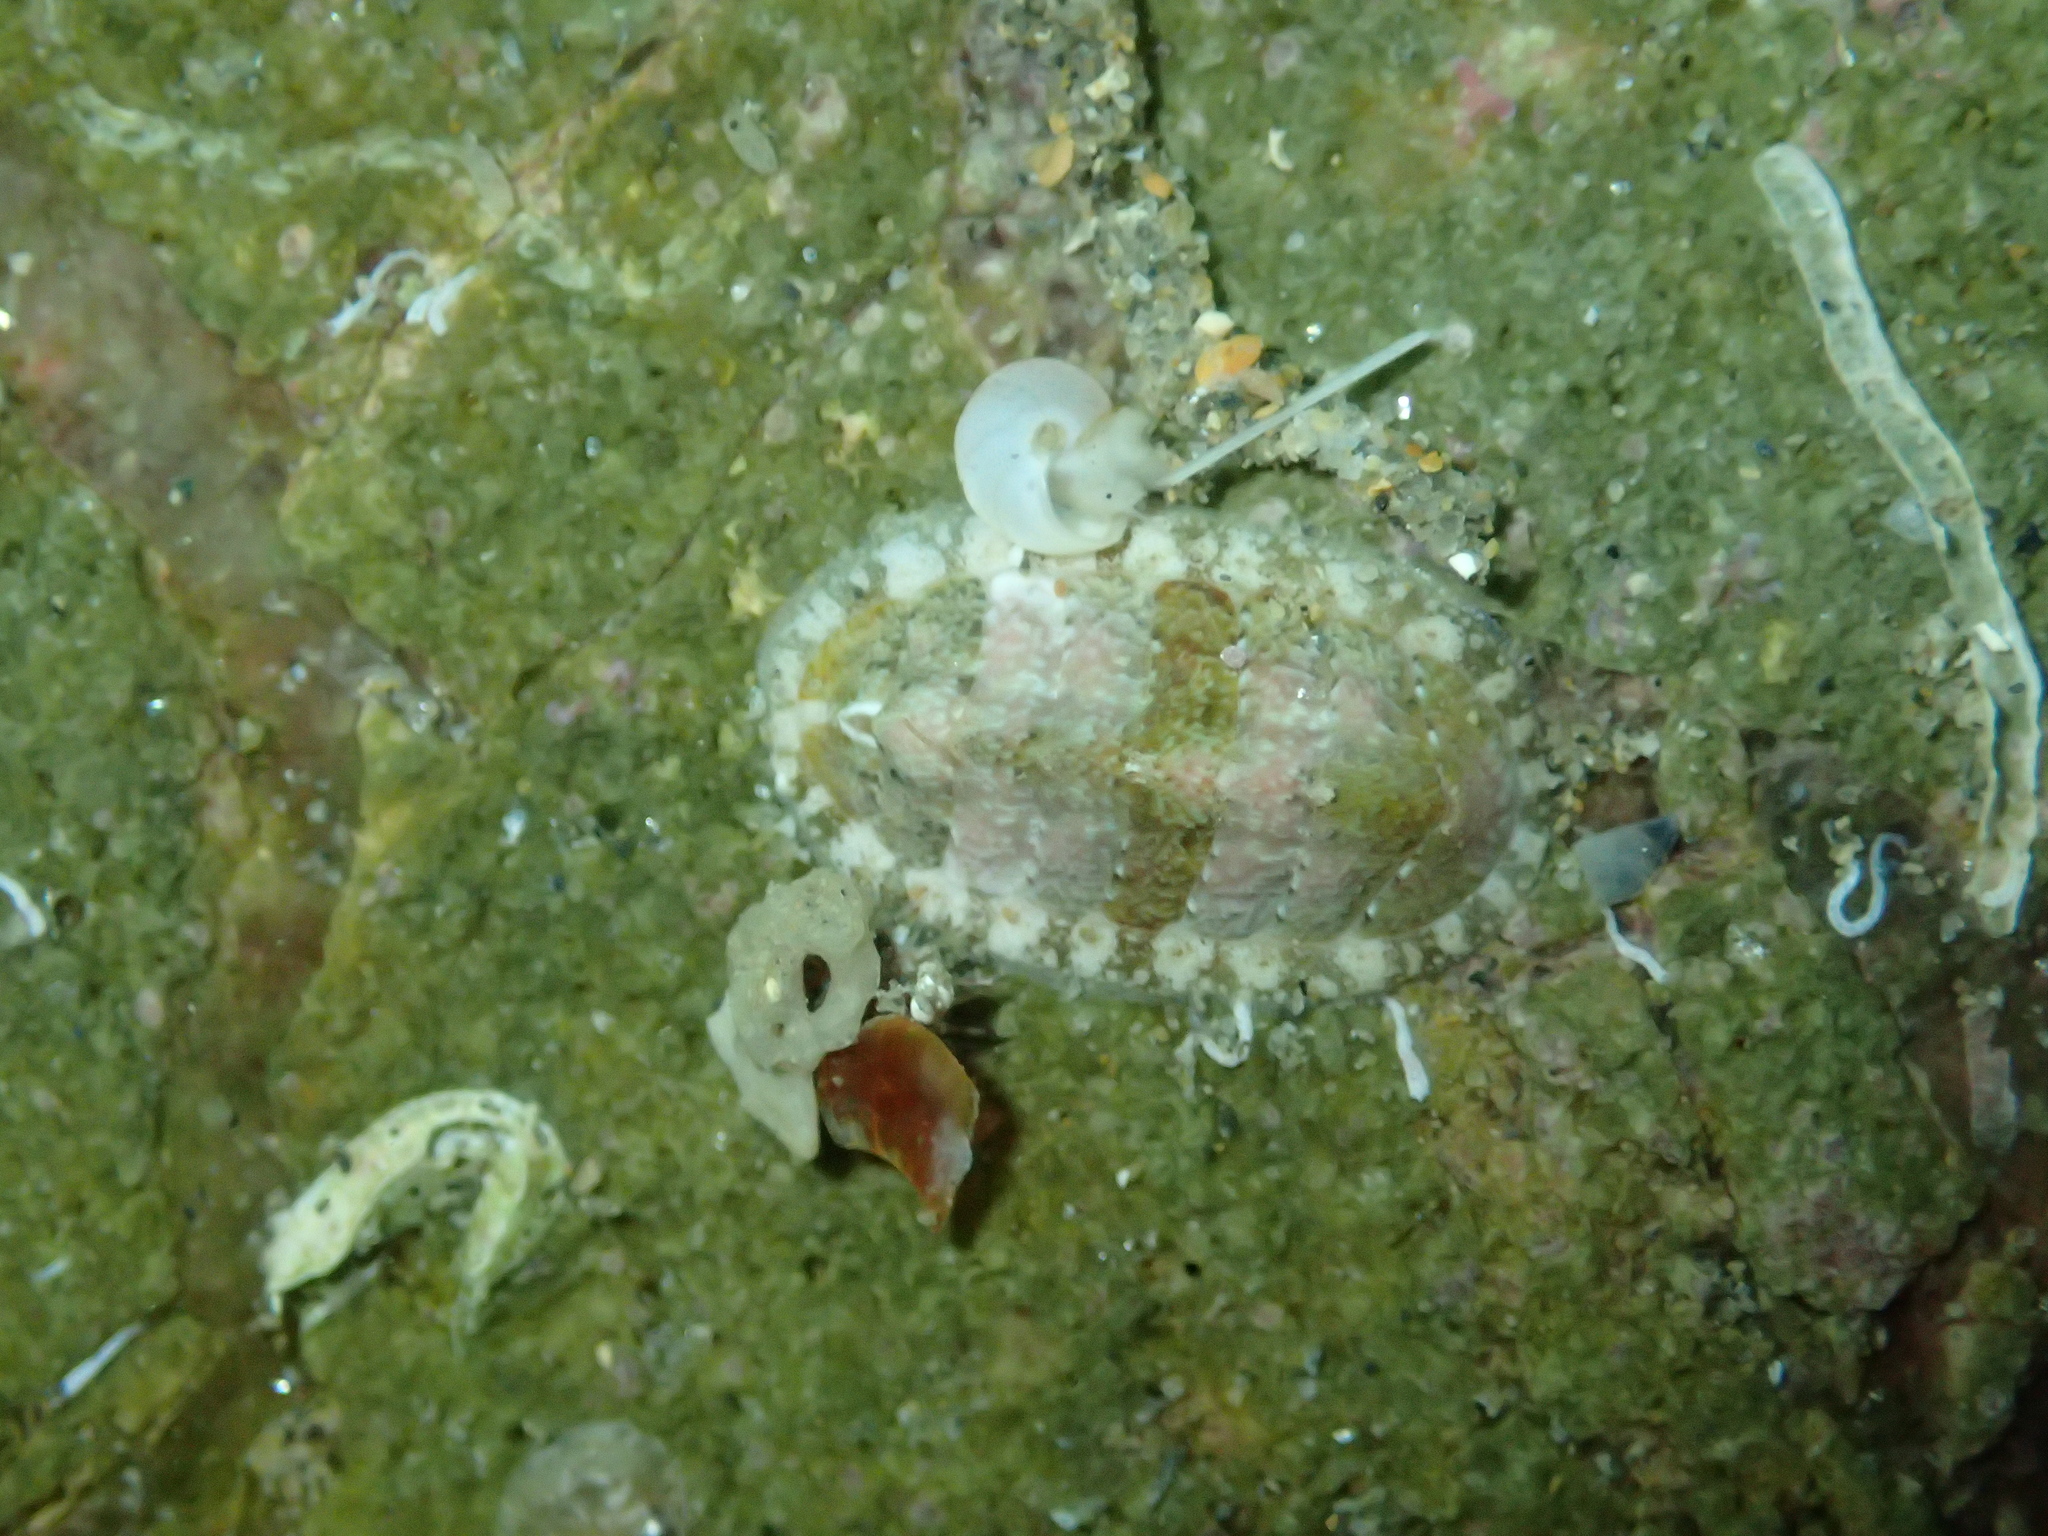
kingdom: Animalia
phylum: Mollusca
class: Polyplacophora
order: Chitonida
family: Tonicellidae
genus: Lepidochitona
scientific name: Lepidochitona cinerea
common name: Cinereous chiton
